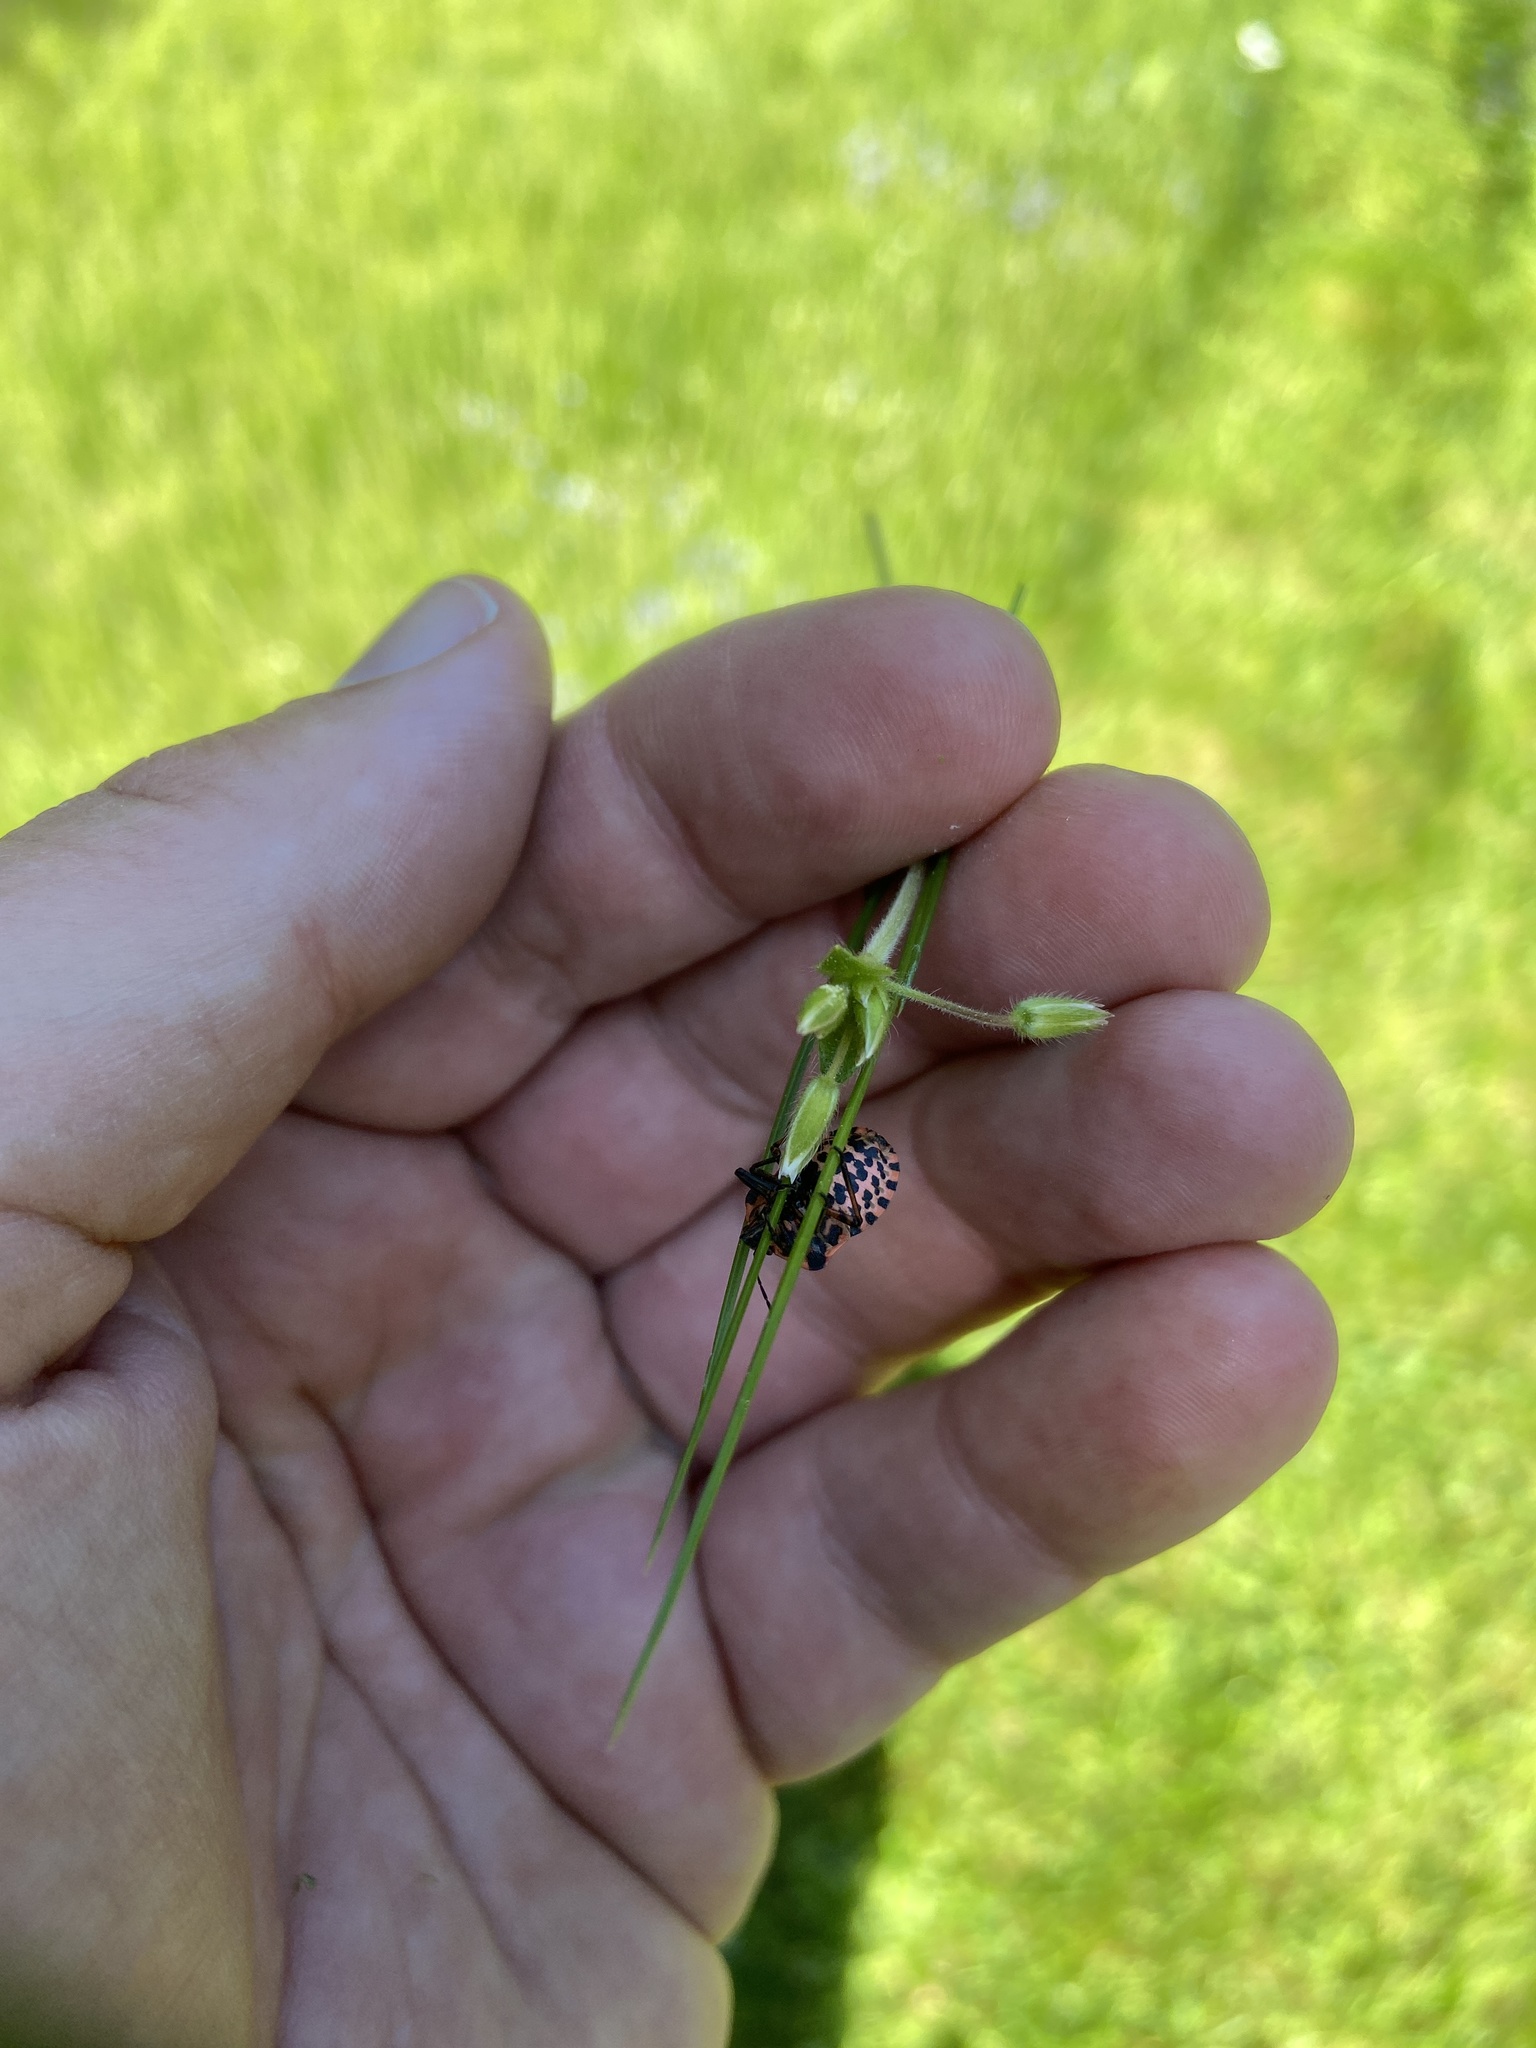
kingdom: Animalia
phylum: Arthropoda
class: Insecta
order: Hemiptera
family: Pentatomidae
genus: Graphosoma
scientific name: Graphosoma italicum
